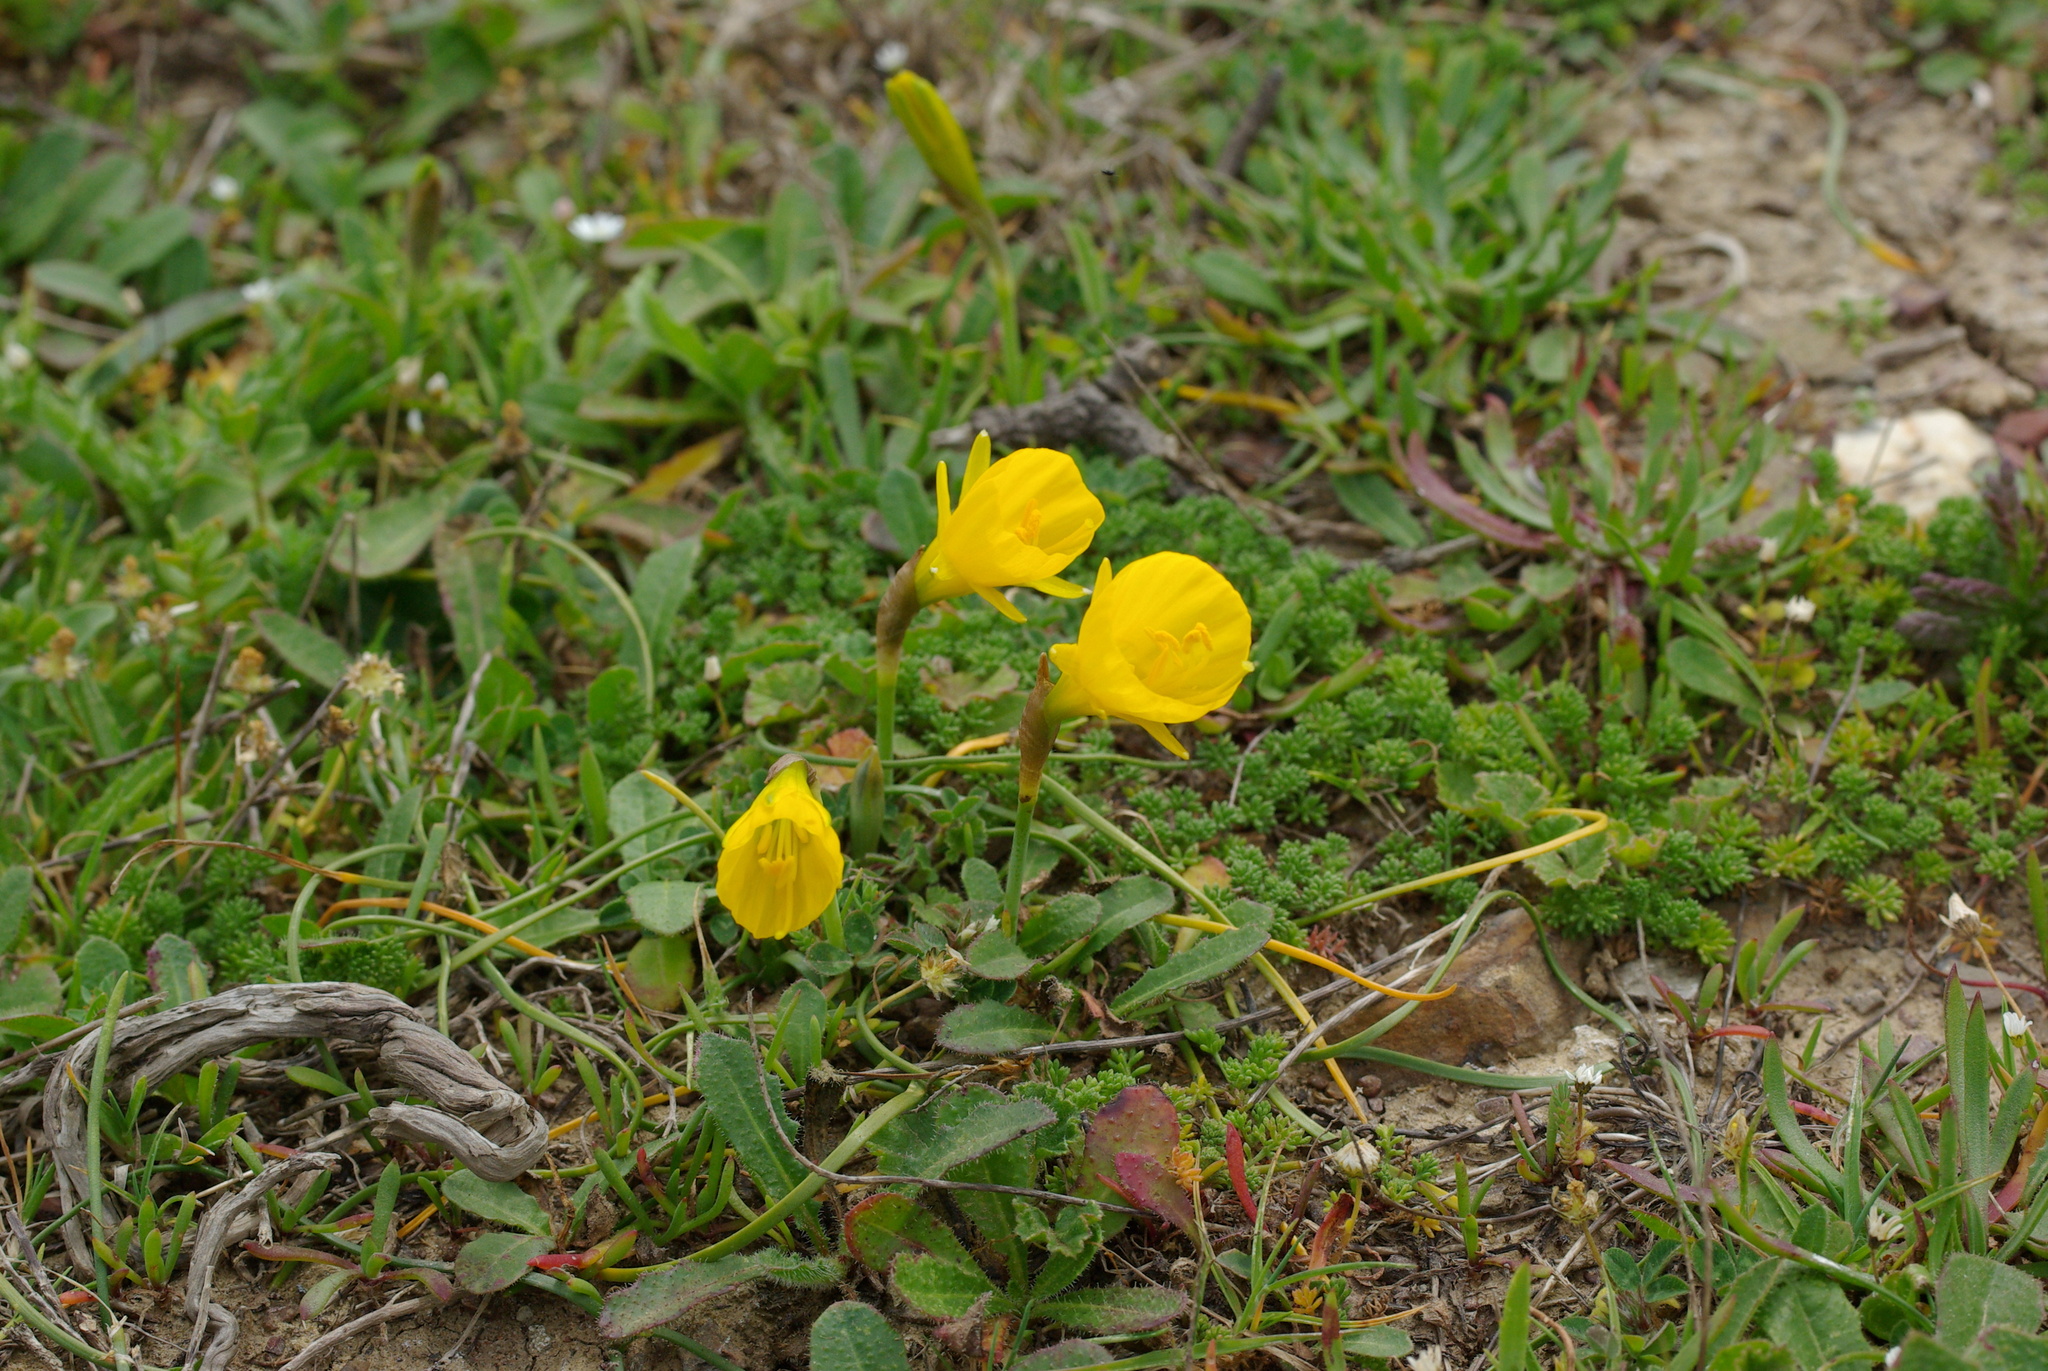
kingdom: Plantae
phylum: Tracheophyta
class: Liliopsida
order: Asparagales
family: Amaryllidaceae
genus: Narcissus
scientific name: Narcissus bulbocodium
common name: Hoop-petticoat daffodil
